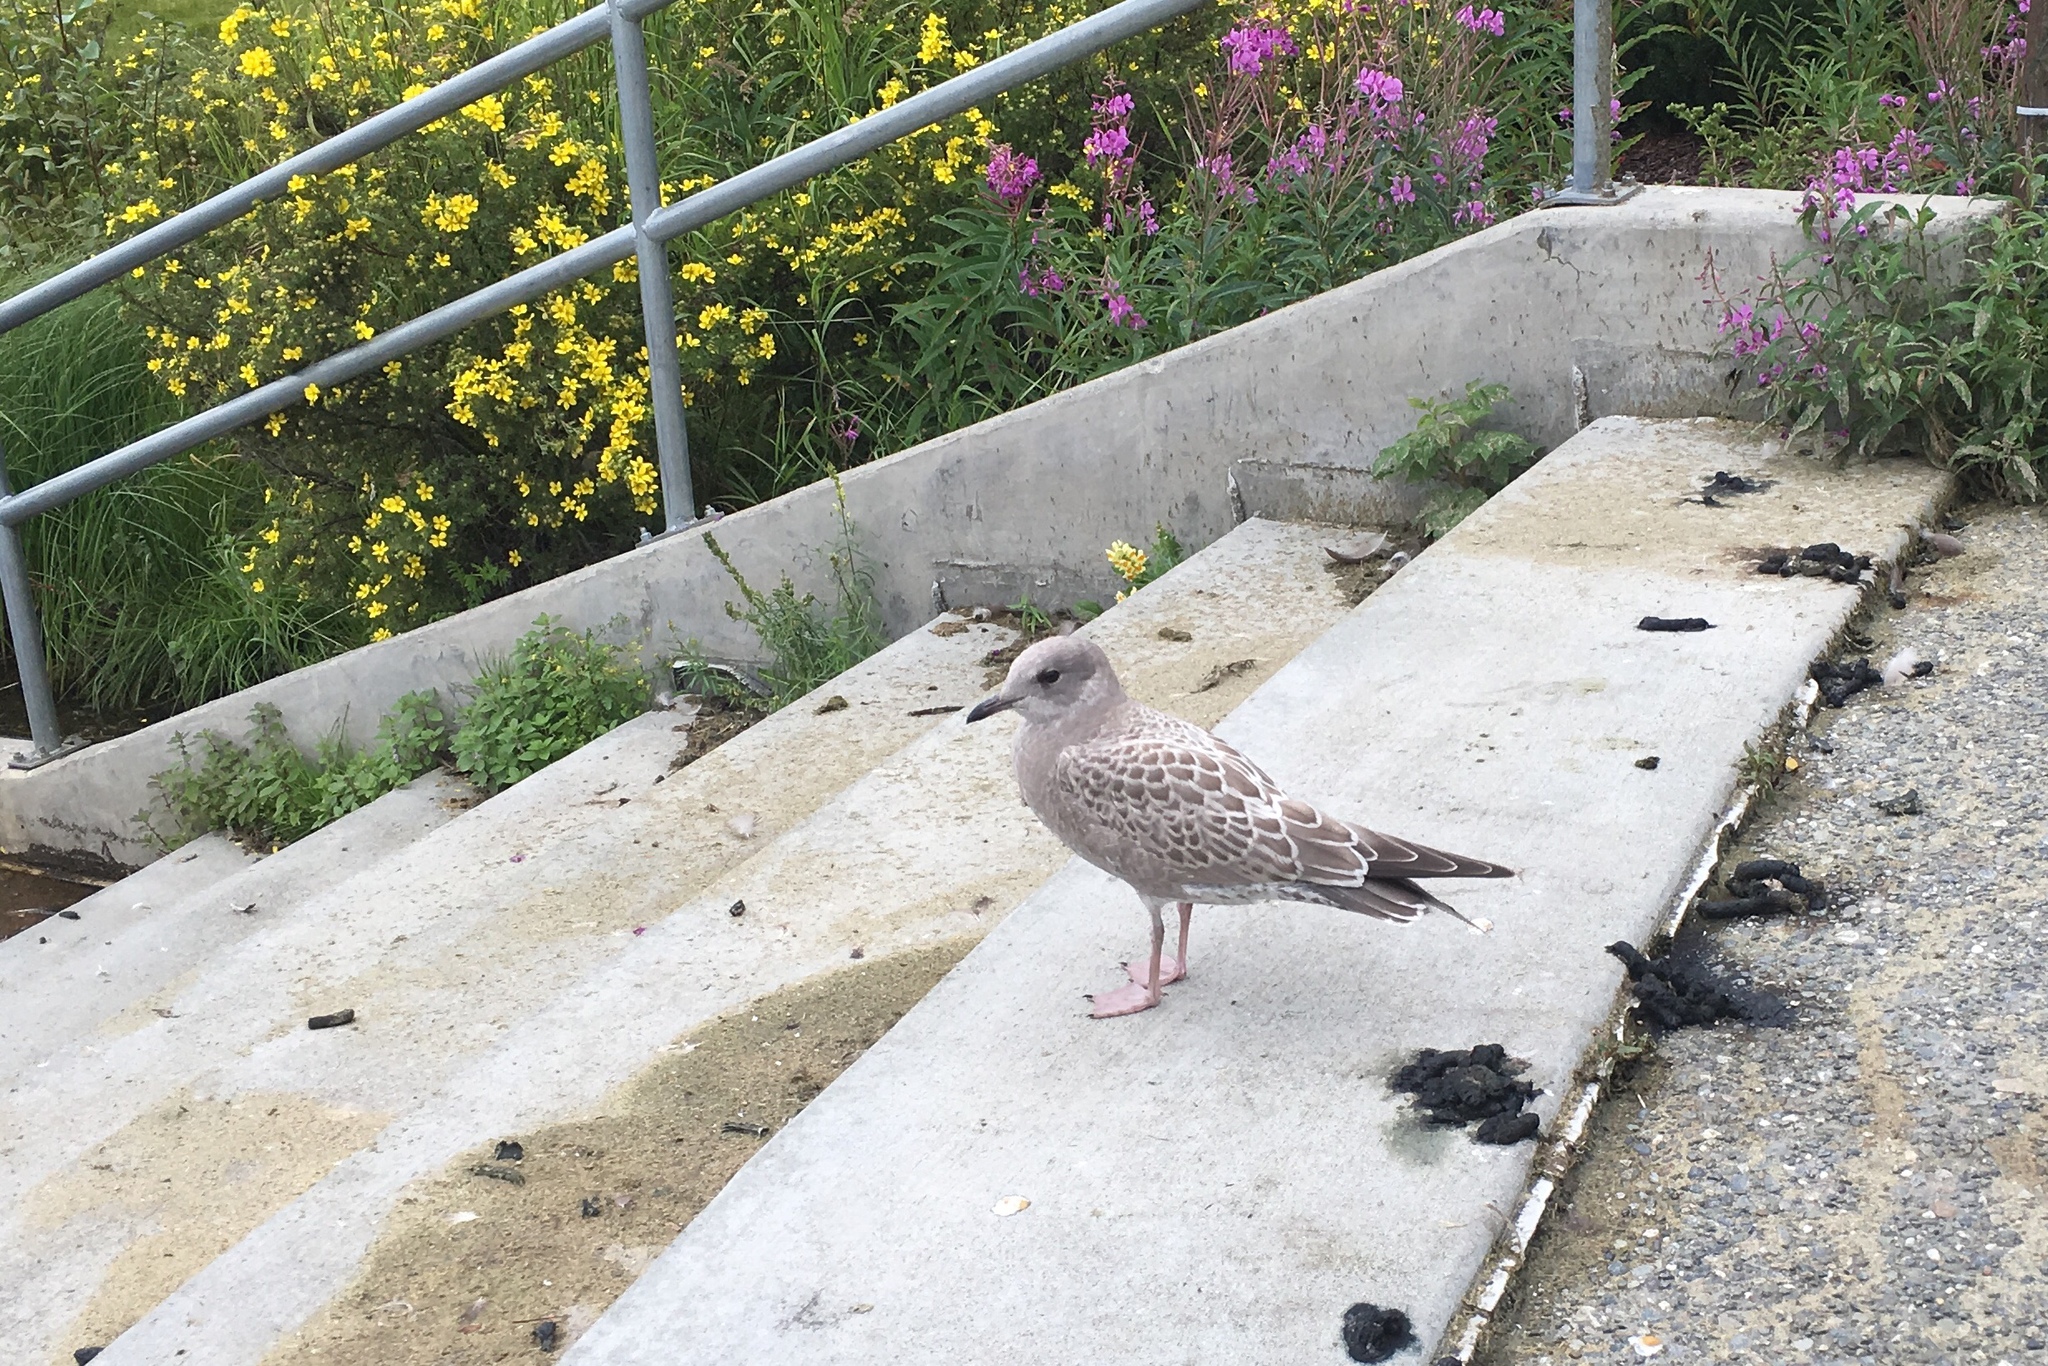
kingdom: Animalia
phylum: Chordata
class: Aves
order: Charadriiformes
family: Laridae
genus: Larus
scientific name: Larus brachyrhynchus
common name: Short-billed gull
